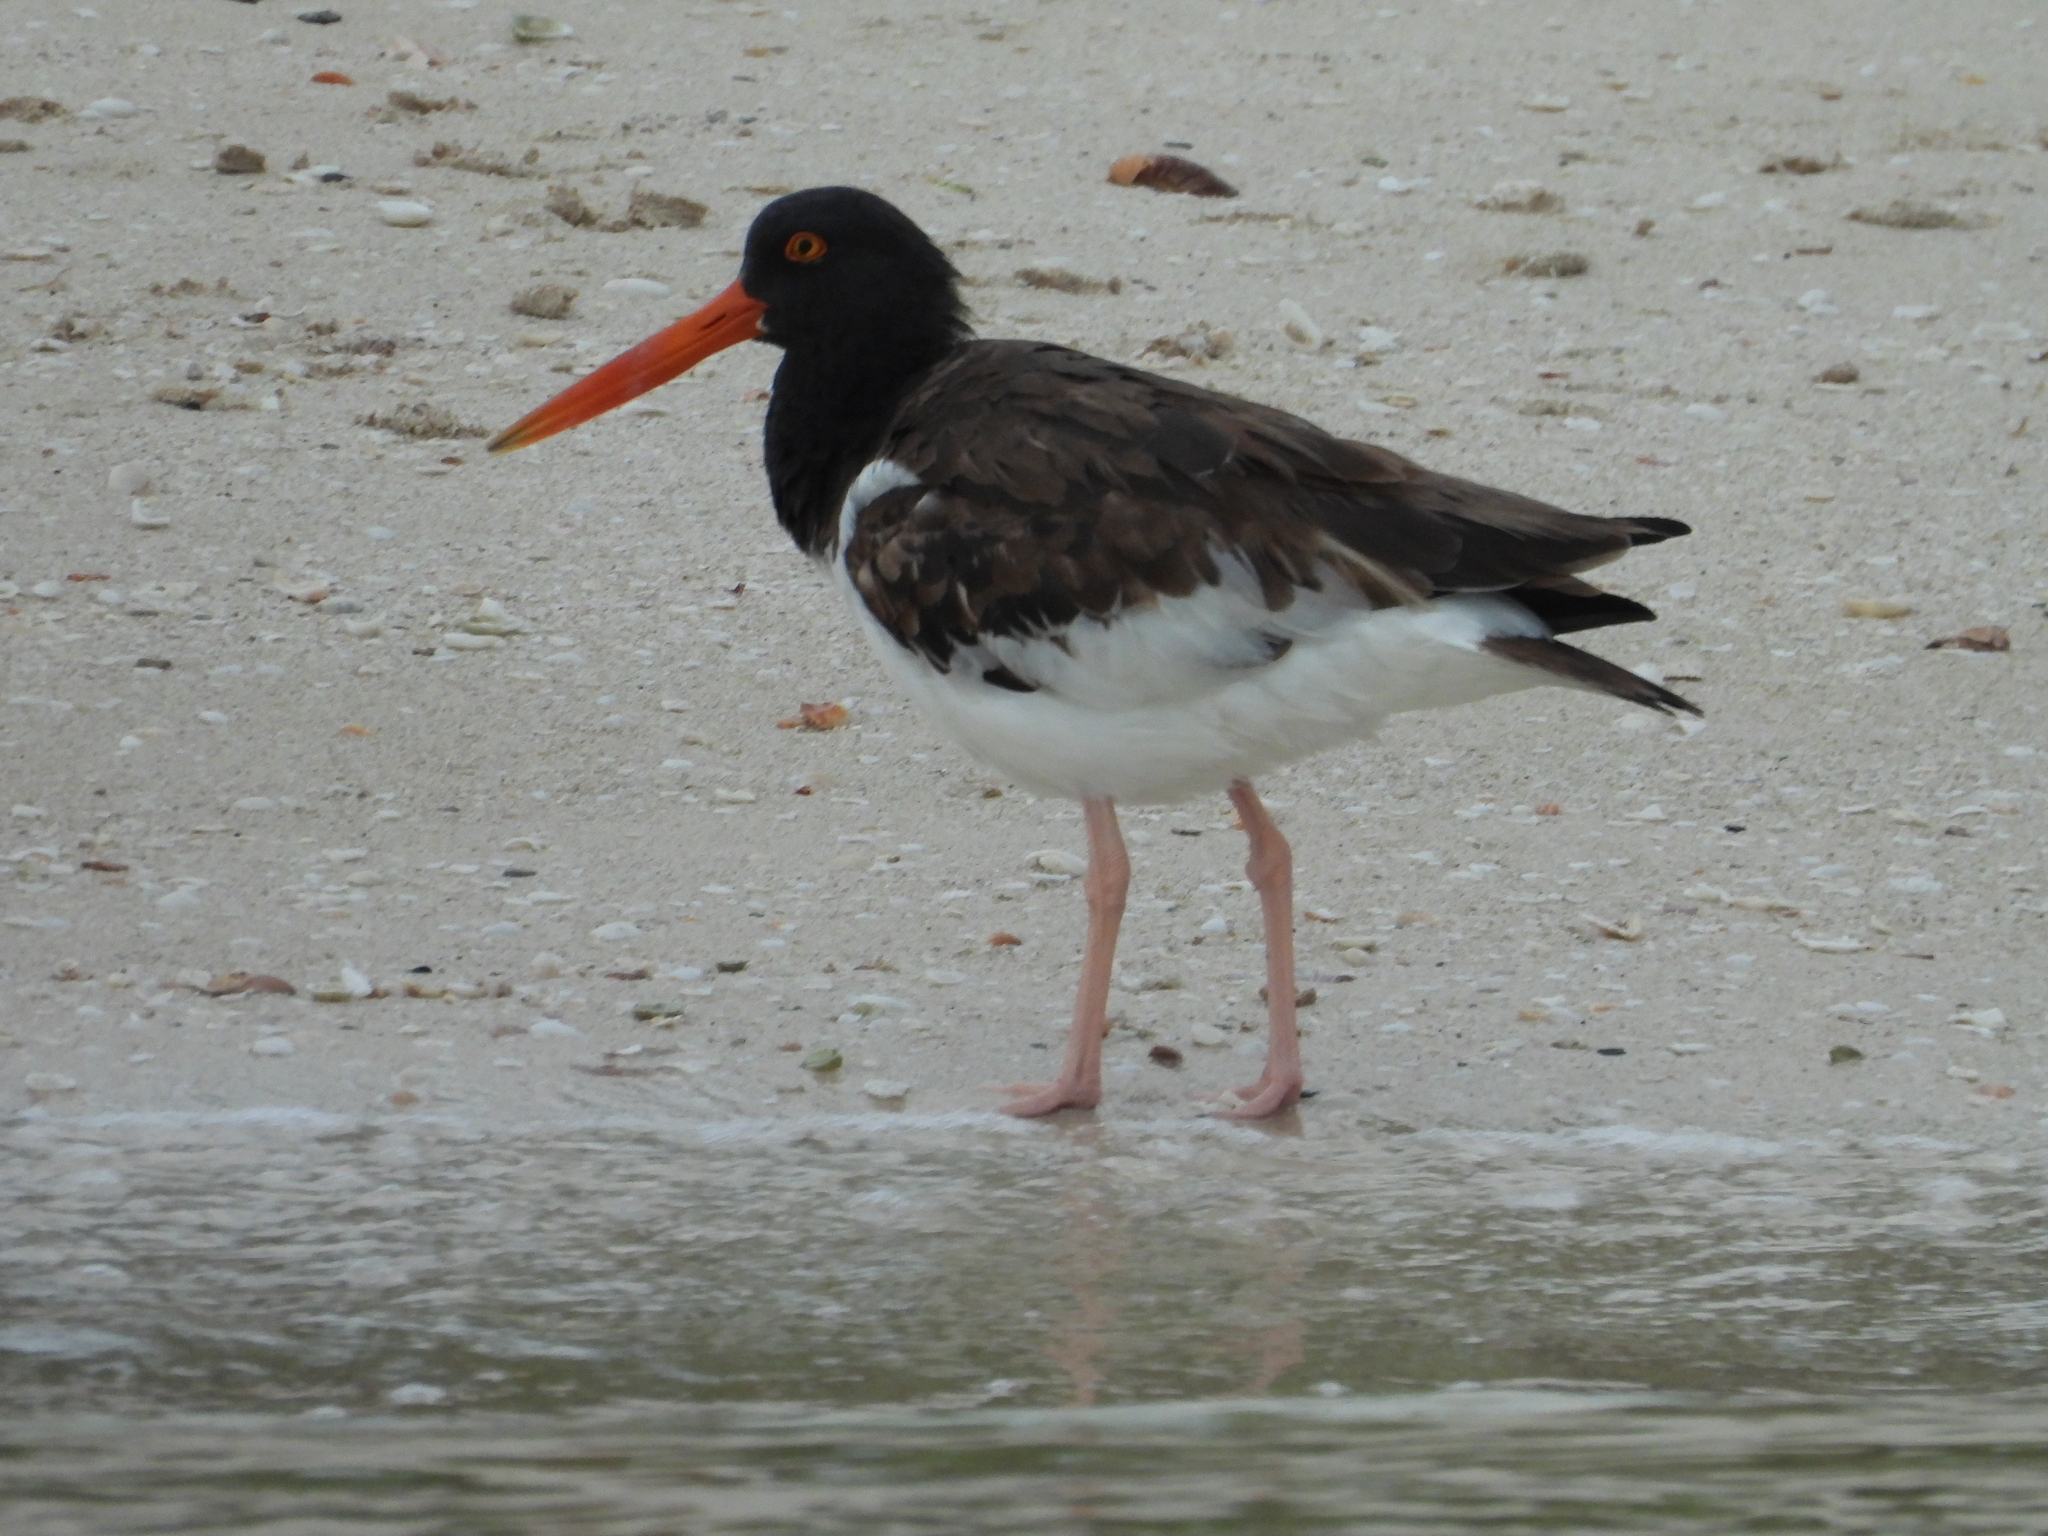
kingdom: Animalia
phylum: Chordata
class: Aves
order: Charadriiformes
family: Haematopodidae
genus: Haematopus
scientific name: Haematopus palliatus
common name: American oystercatcher
